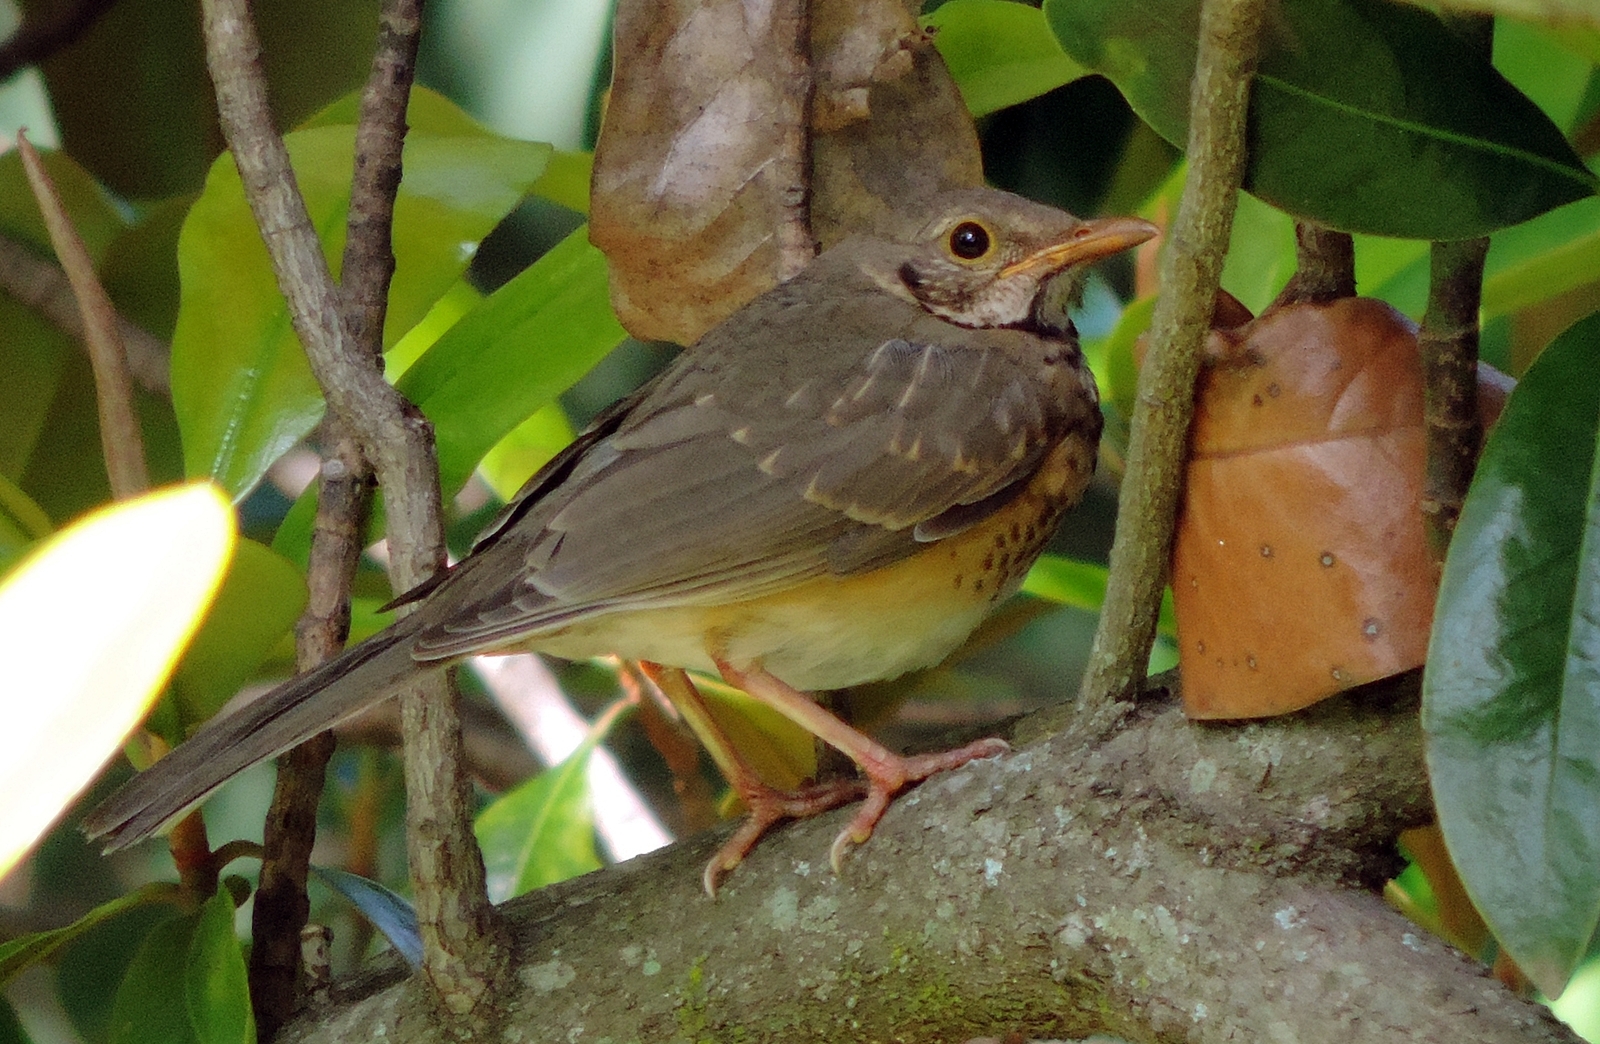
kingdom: Animalia
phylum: Chordata
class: Aves
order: Passeriformes
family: Turdidae
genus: Turdus
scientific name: Turdus libonyana
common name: Kurrichane thrush
